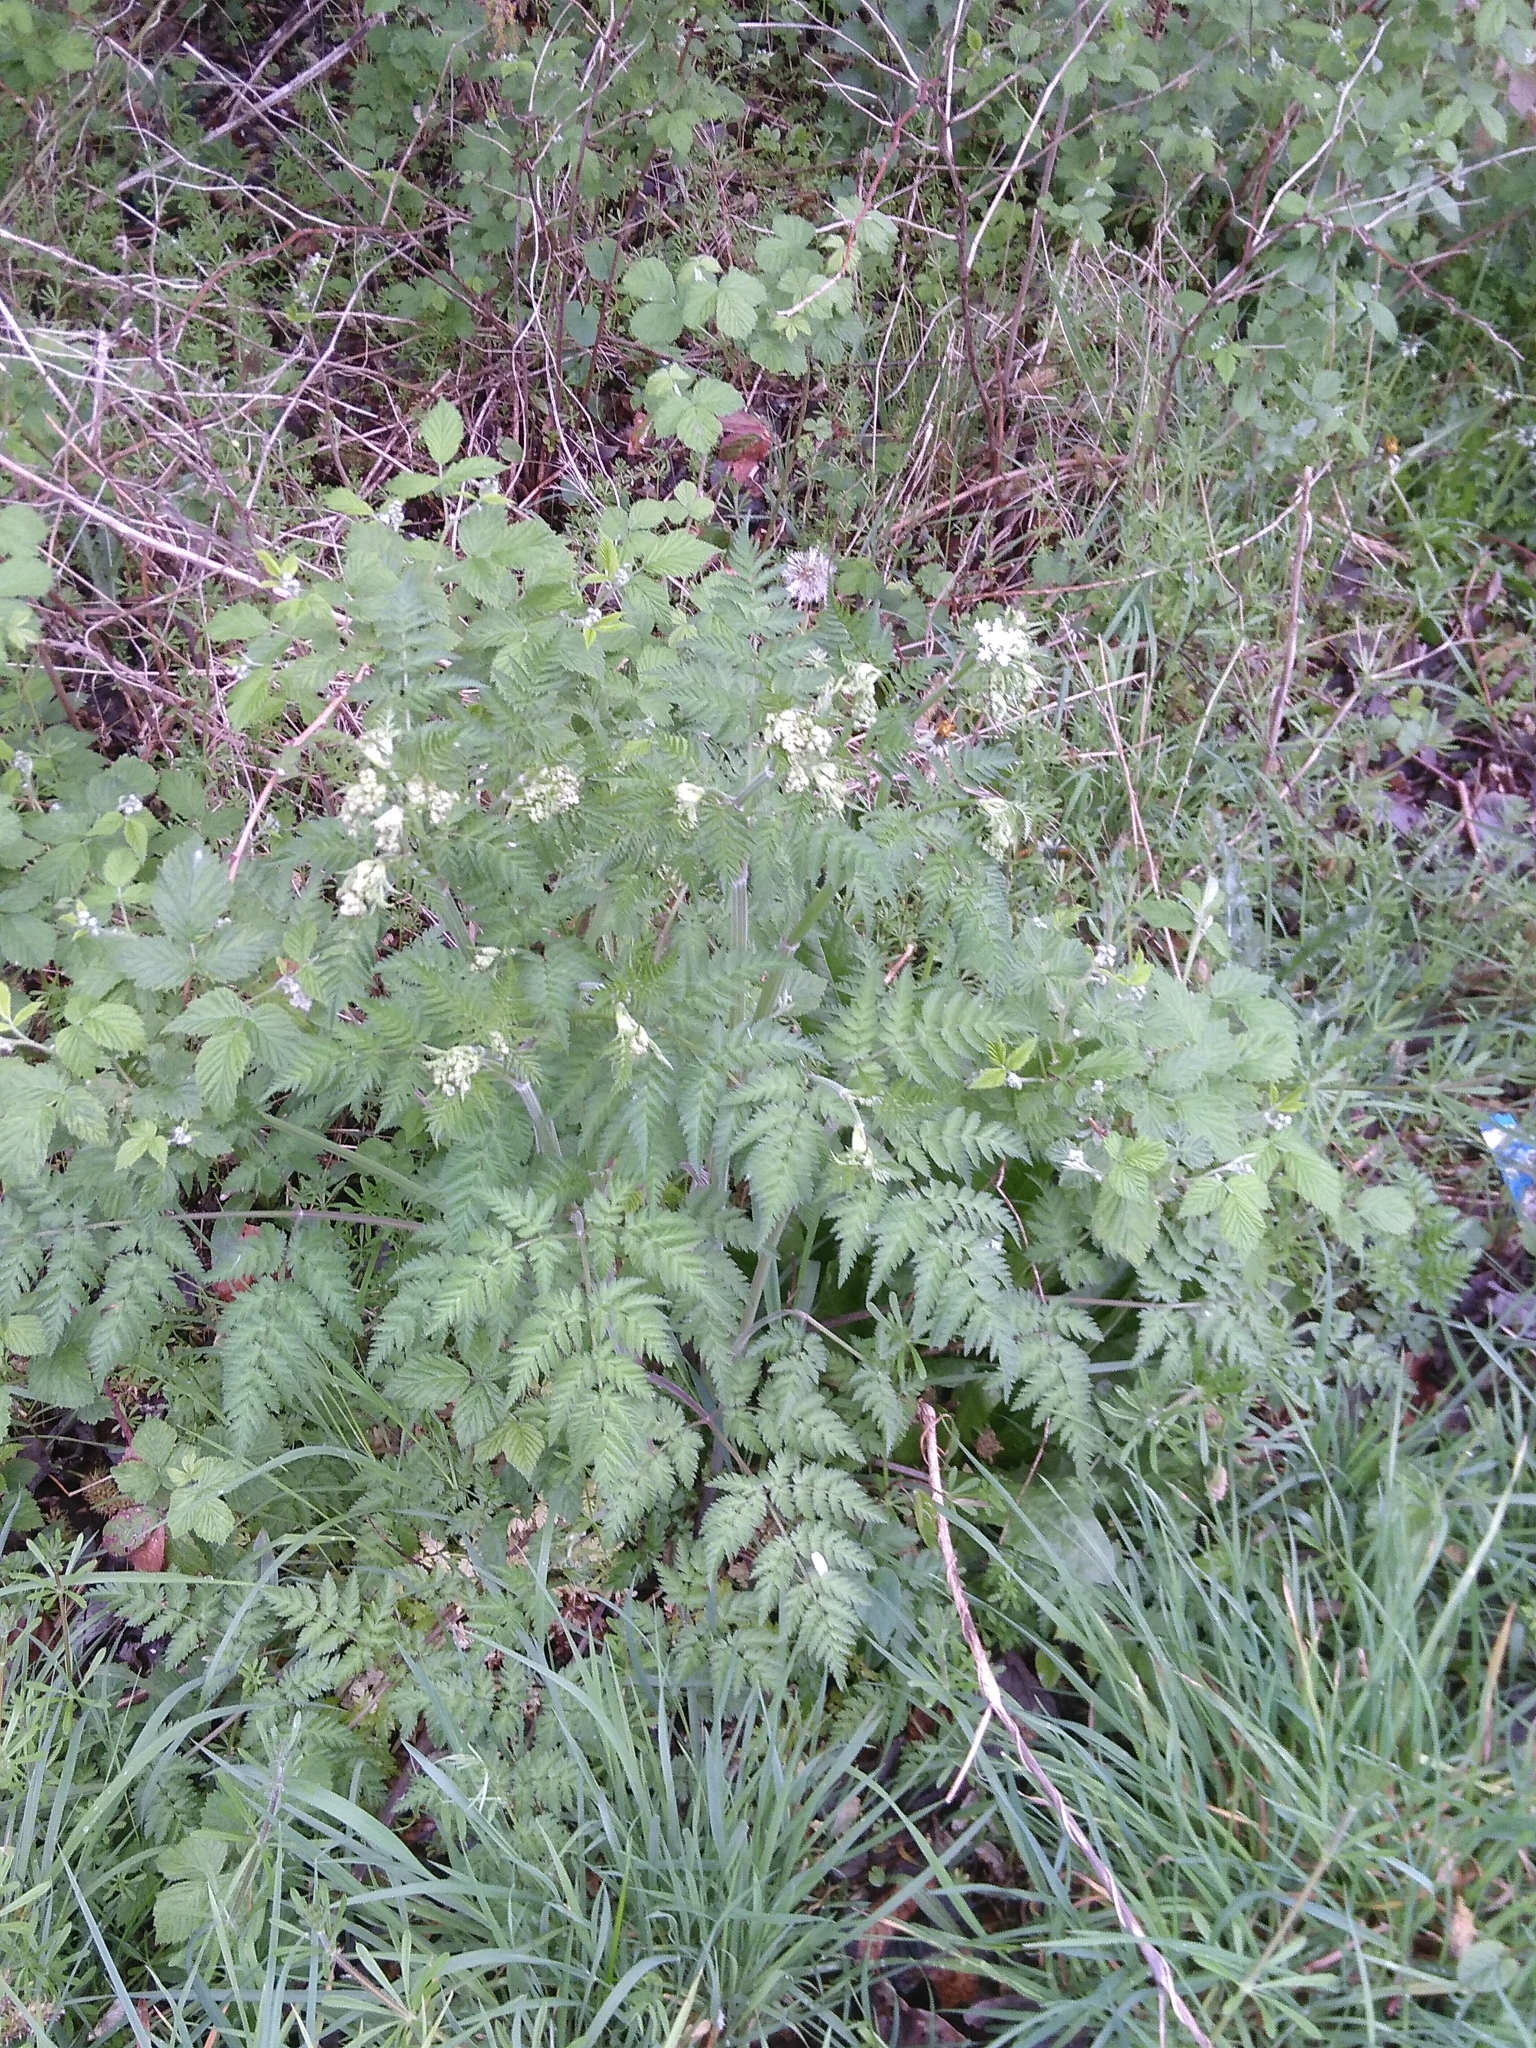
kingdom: Plantae
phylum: Tracheophyta
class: Magnoliopsida
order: Apiales
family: Apiaceae
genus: Anthriscus
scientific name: Anthriscus sylvestris
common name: Cow parsley
